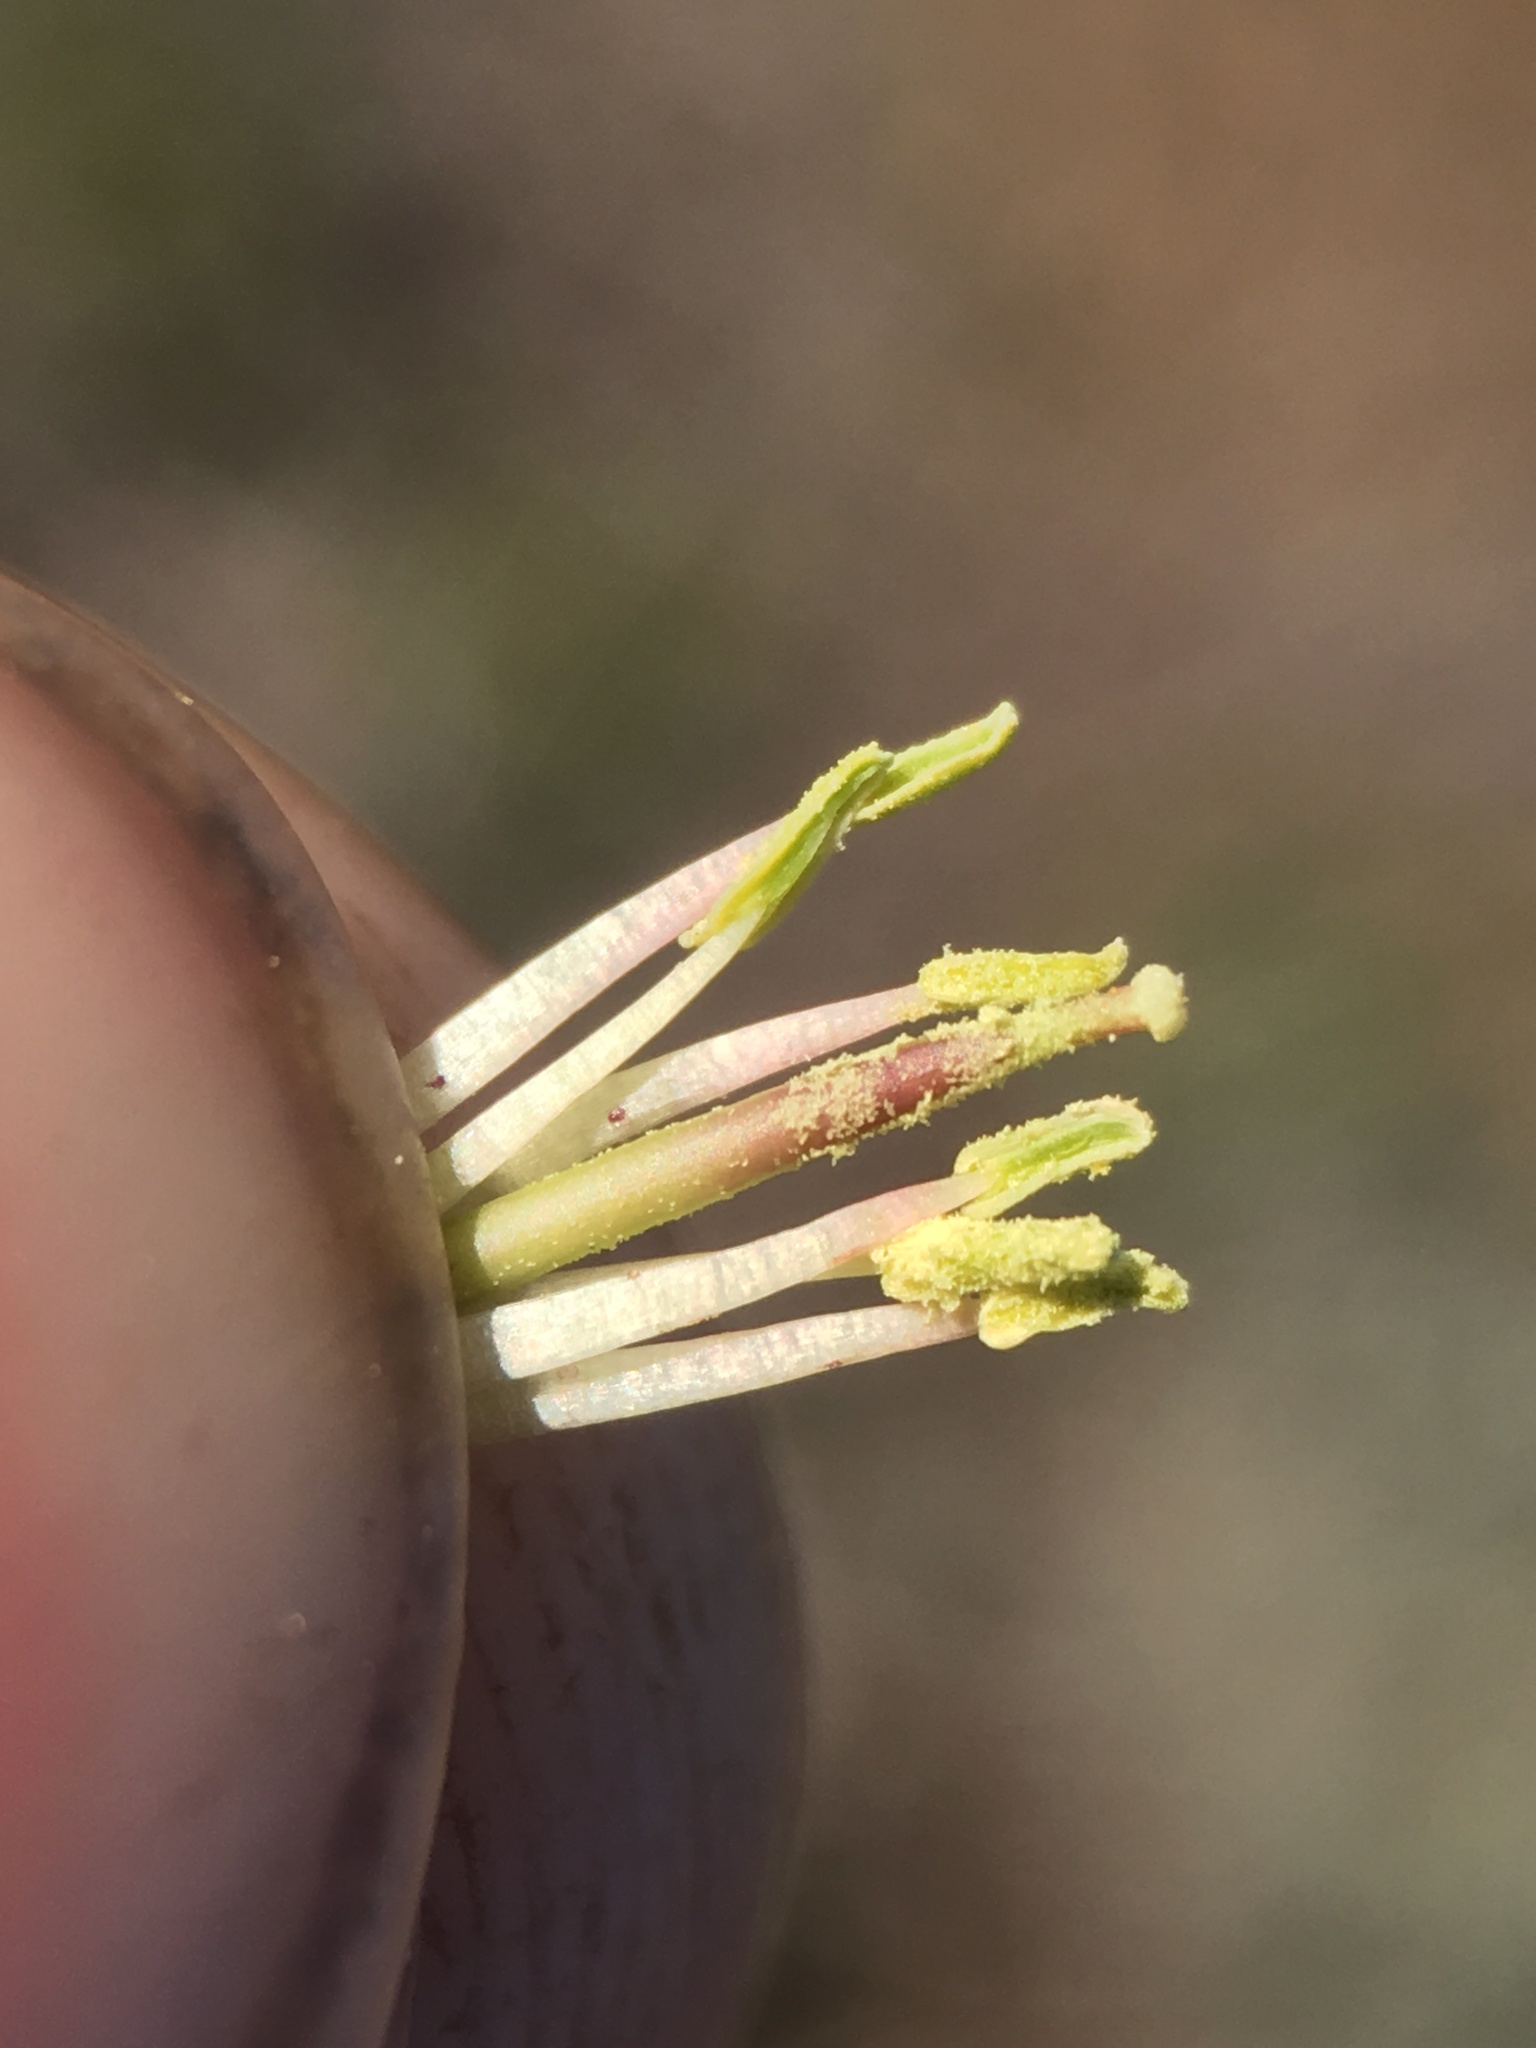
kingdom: Plantae
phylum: Tracheophyta
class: Magnoliopsida
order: Brassicales
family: Brassicaceae
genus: Boechera
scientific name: Boechera johnstonii
